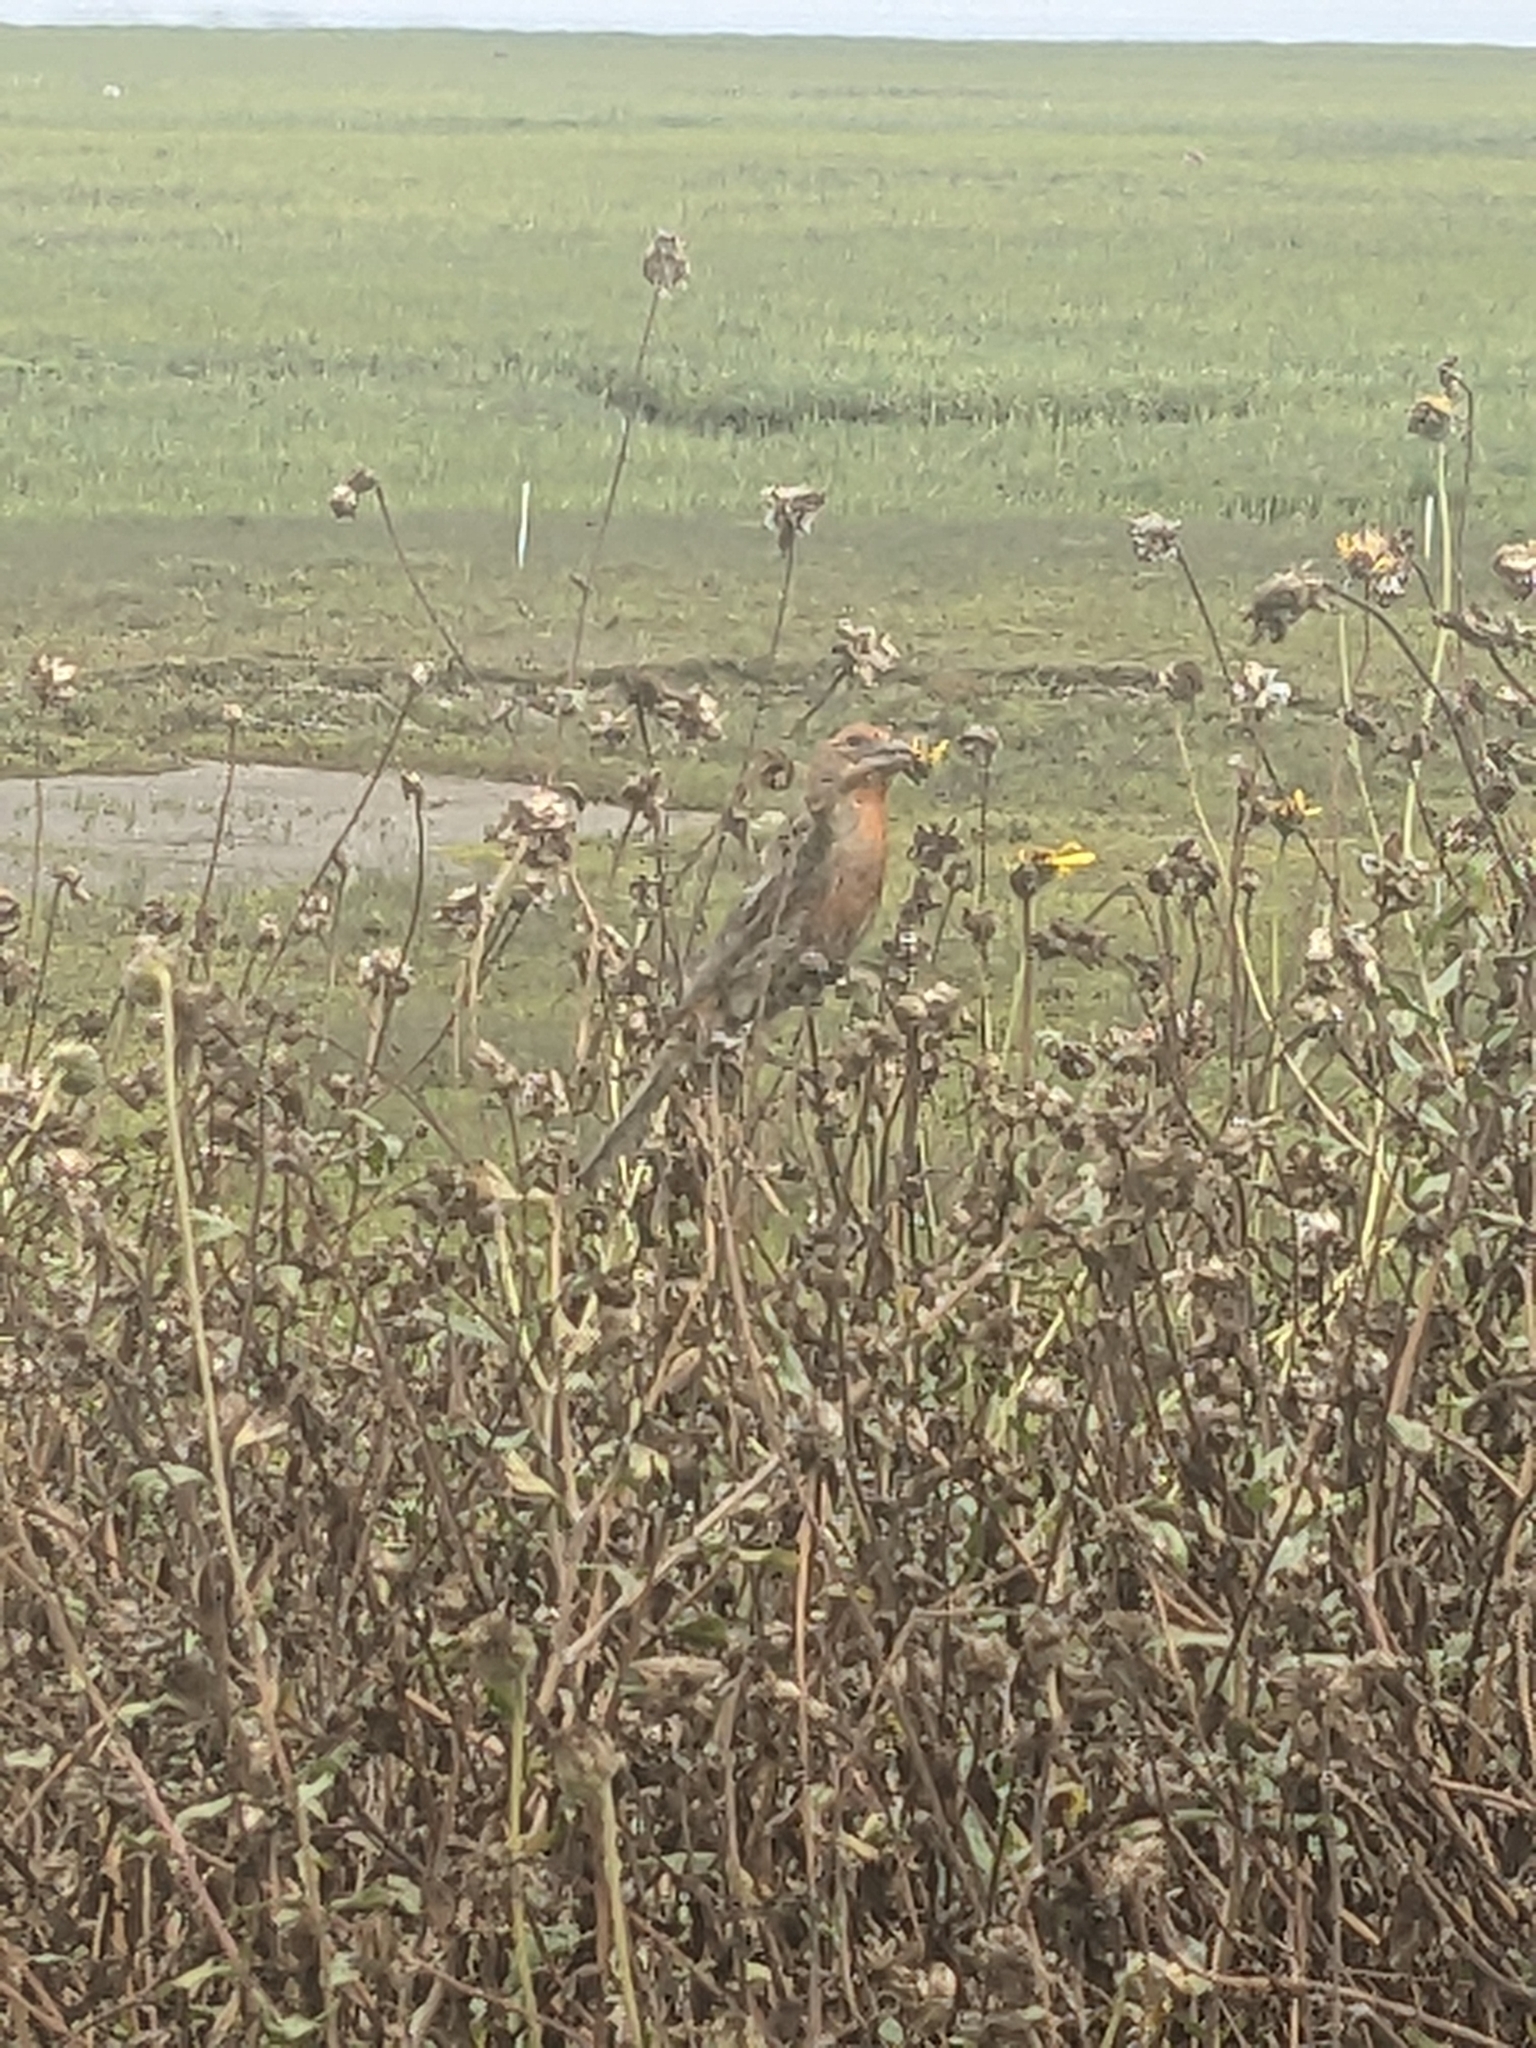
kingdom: Animalia
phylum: Chordata
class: Aves
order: Passeriformes
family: Fringillidae
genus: Haemorhous
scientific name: Haemorhous mexicanus
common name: House finch
